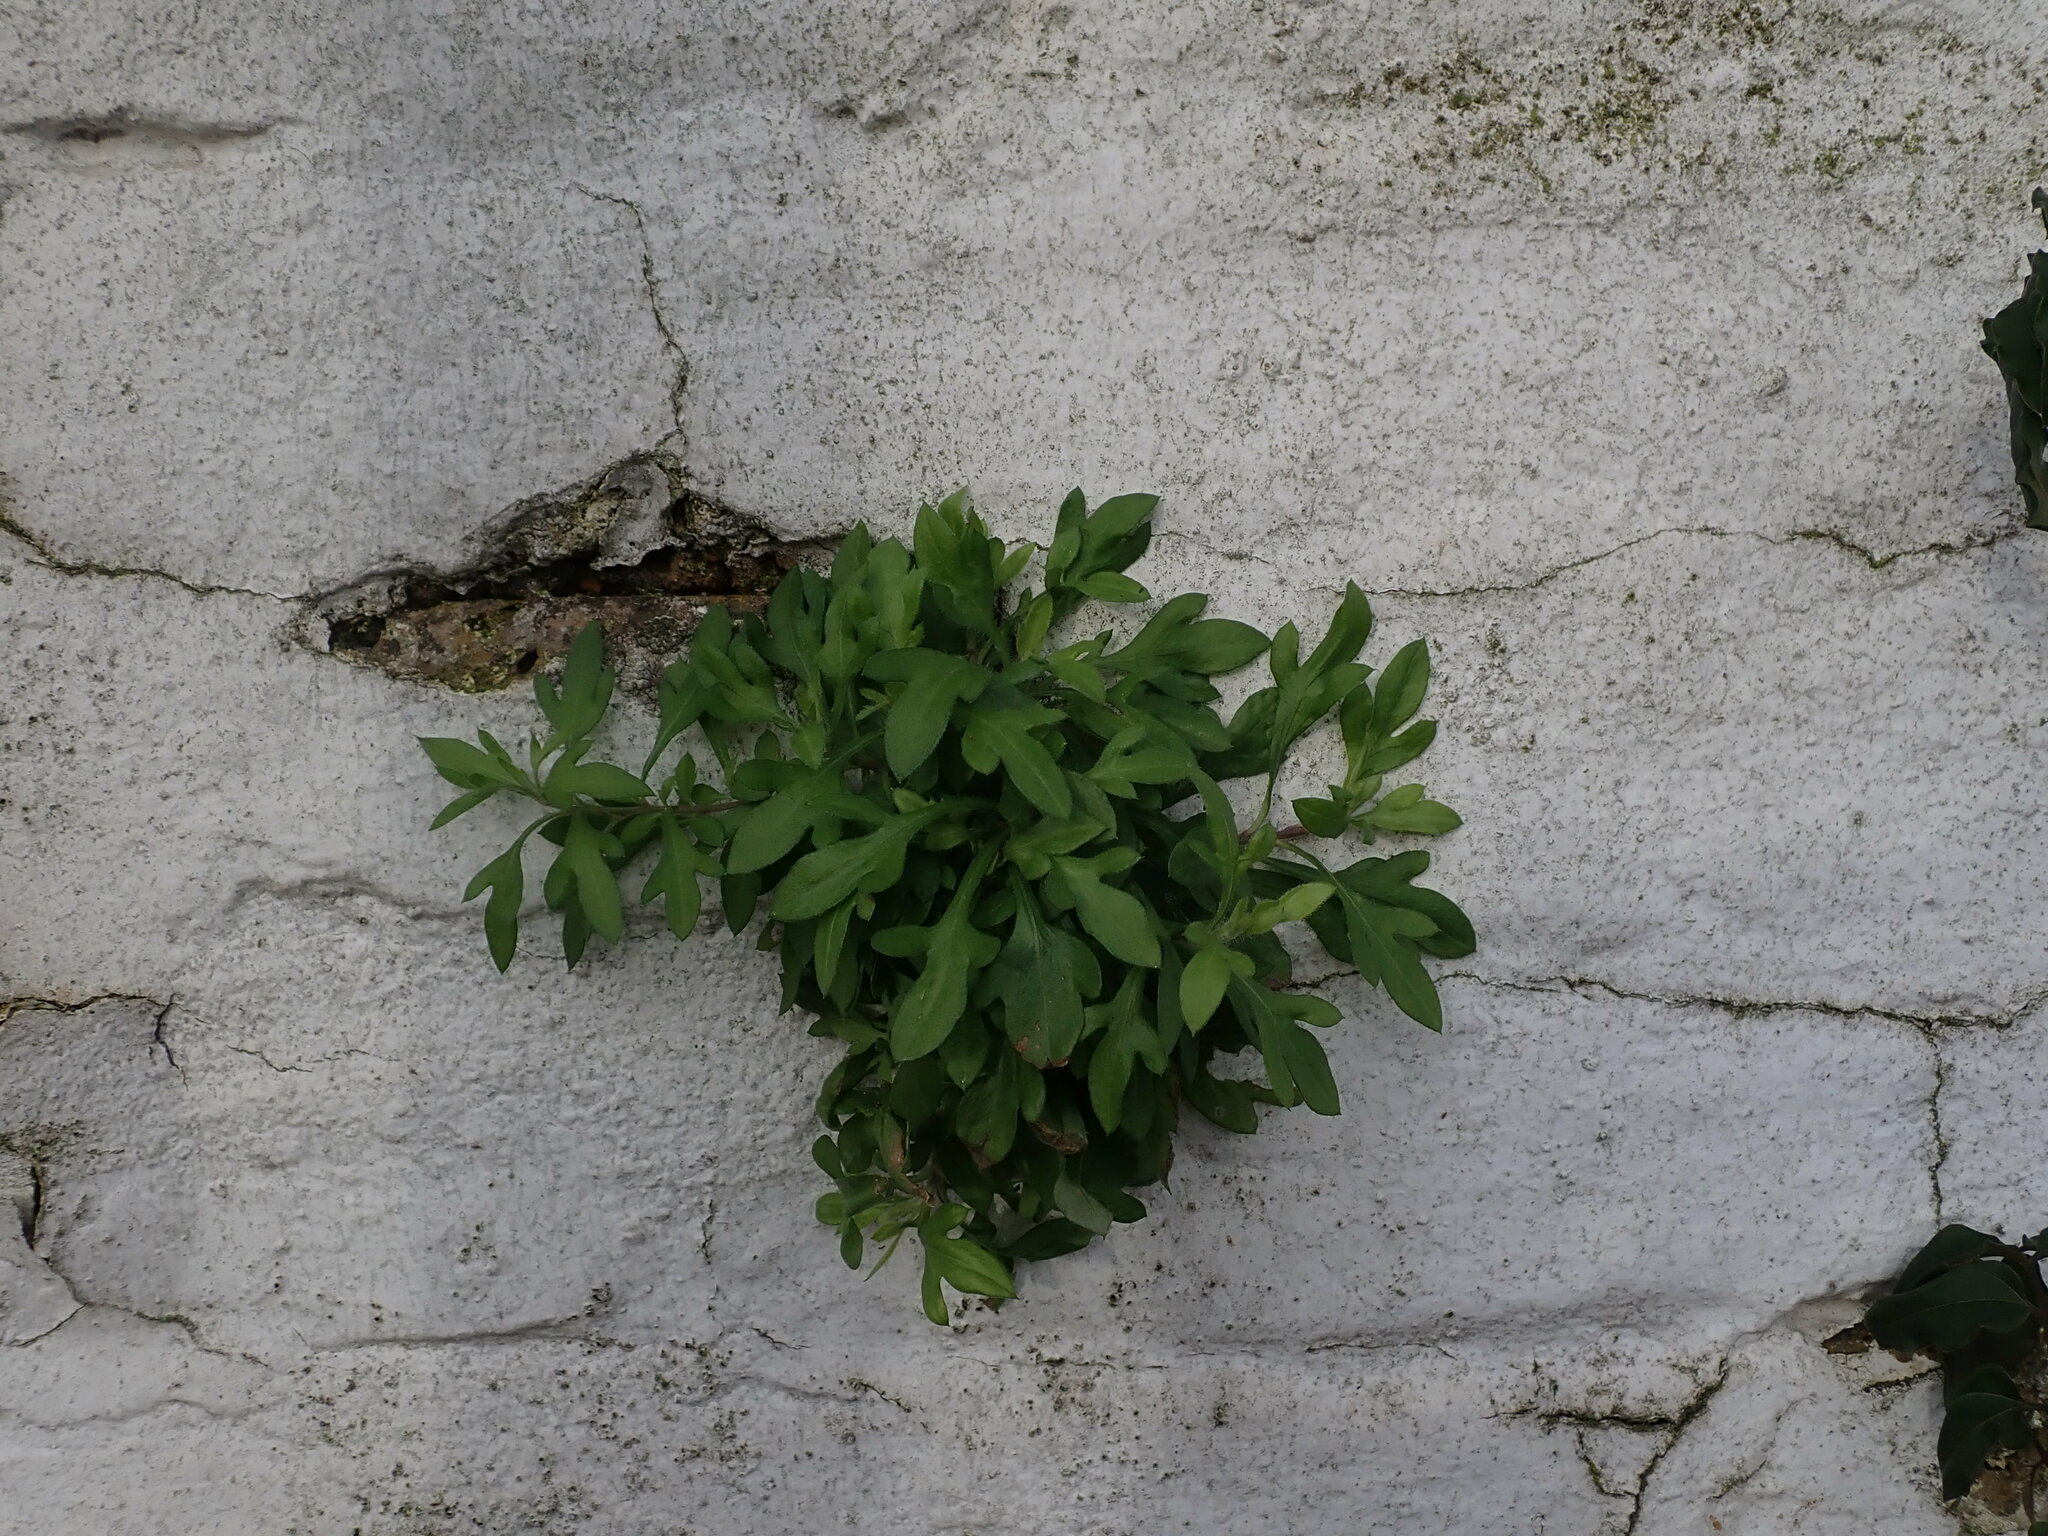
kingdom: Plantae
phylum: Tracheophyta
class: Magnoliopsida
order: Asterales
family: Asteraceae
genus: Erigeron
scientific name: Erigeron karvinskianus
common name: Mexican fleabane
